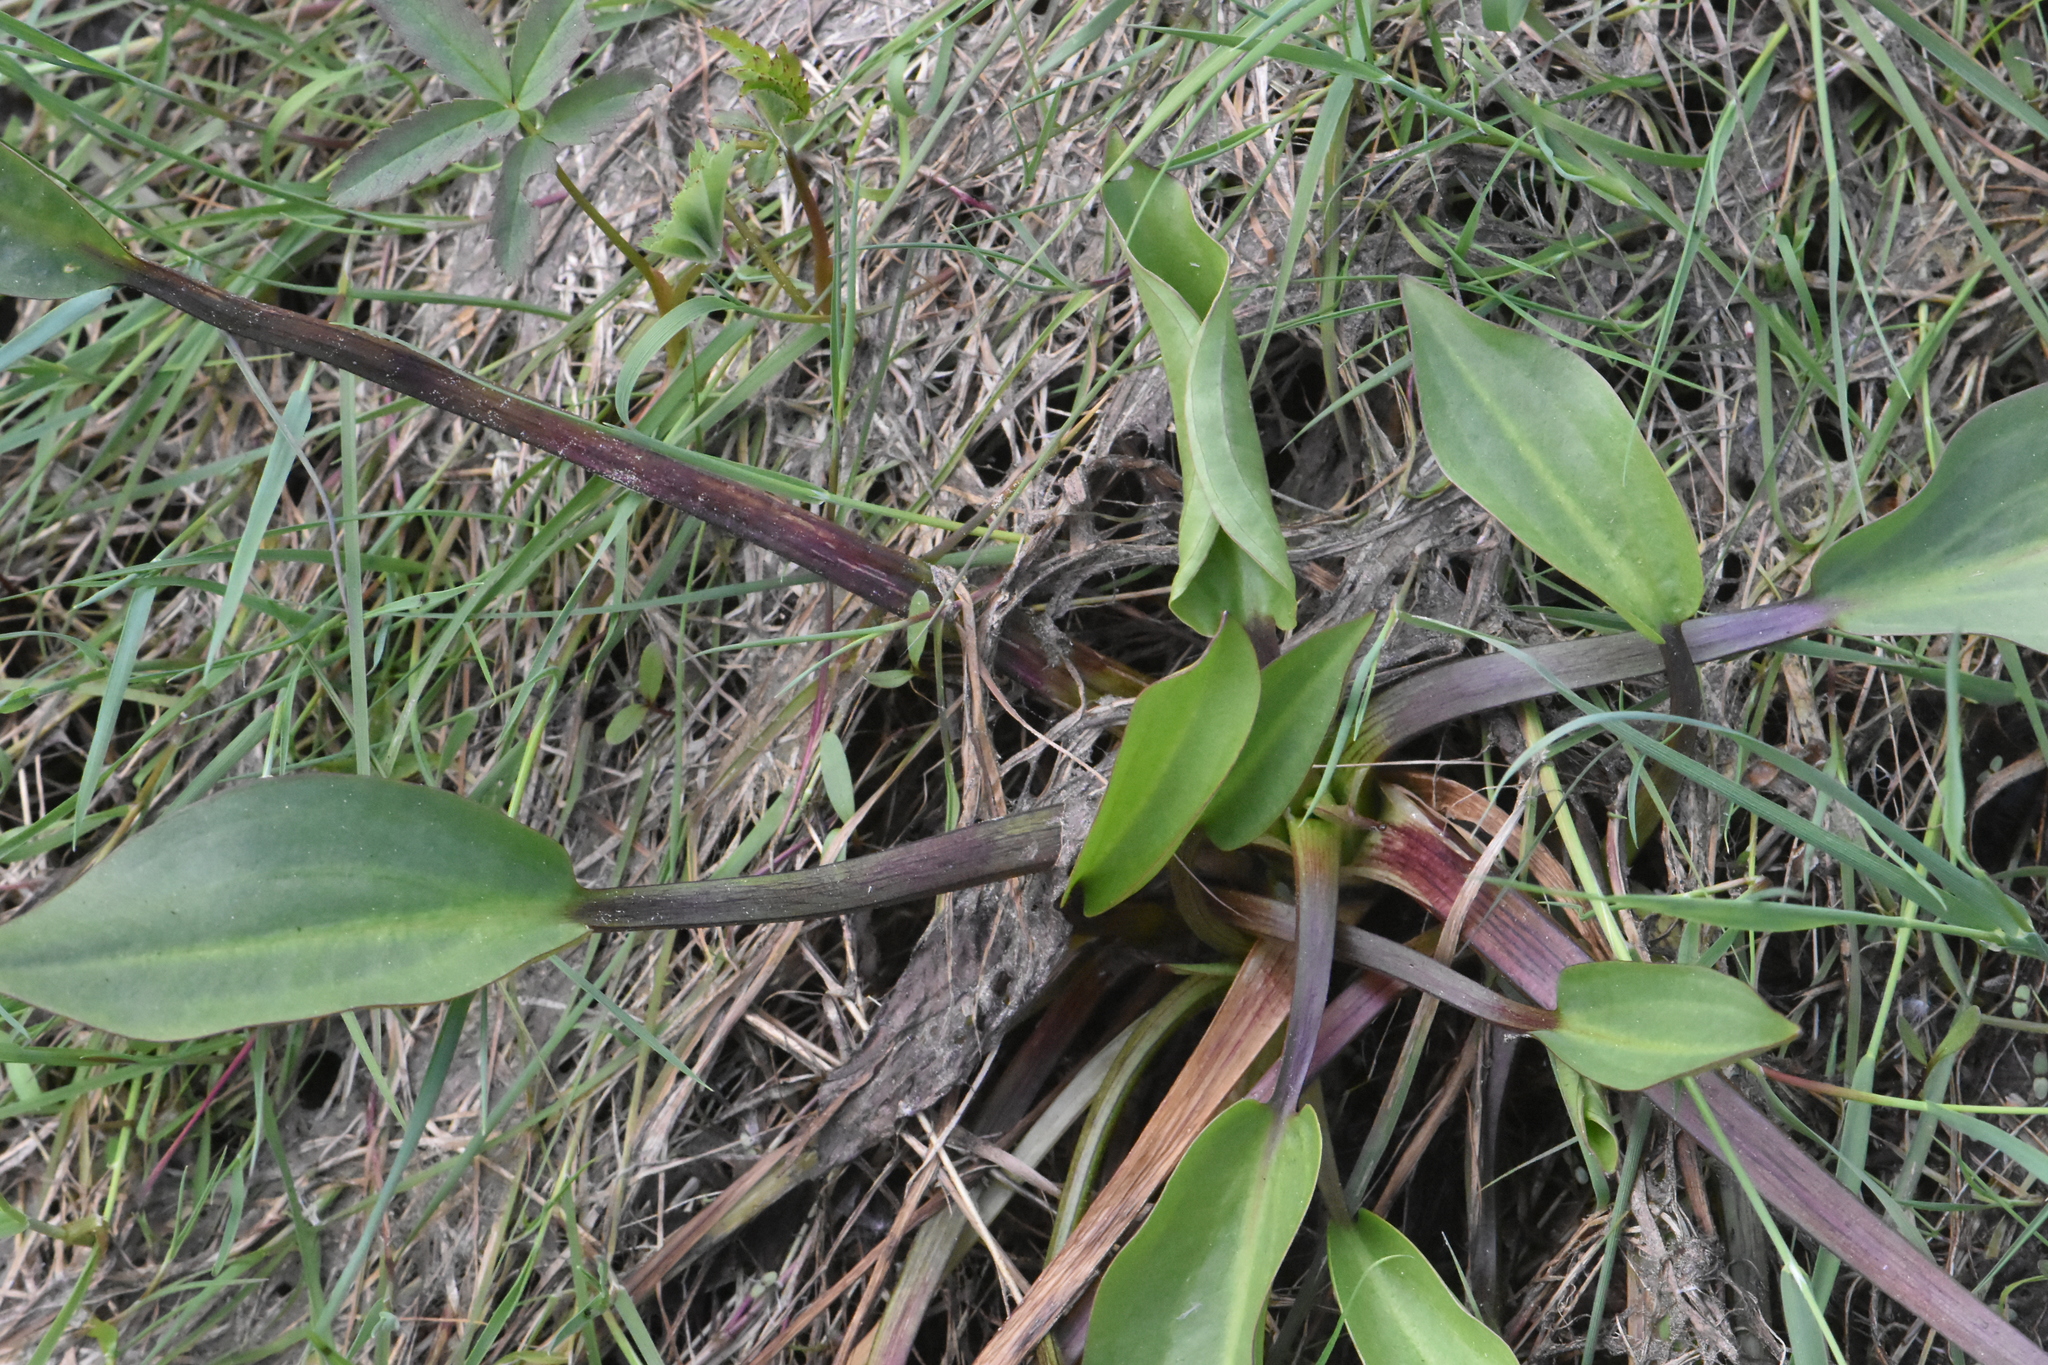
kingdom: Plantae
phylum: Tracheophyta
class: Liliopsida
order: Alismatales
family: Alismataceae
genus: Alisma
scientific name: Alisma plantago-aquatica
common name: Water-plantain
